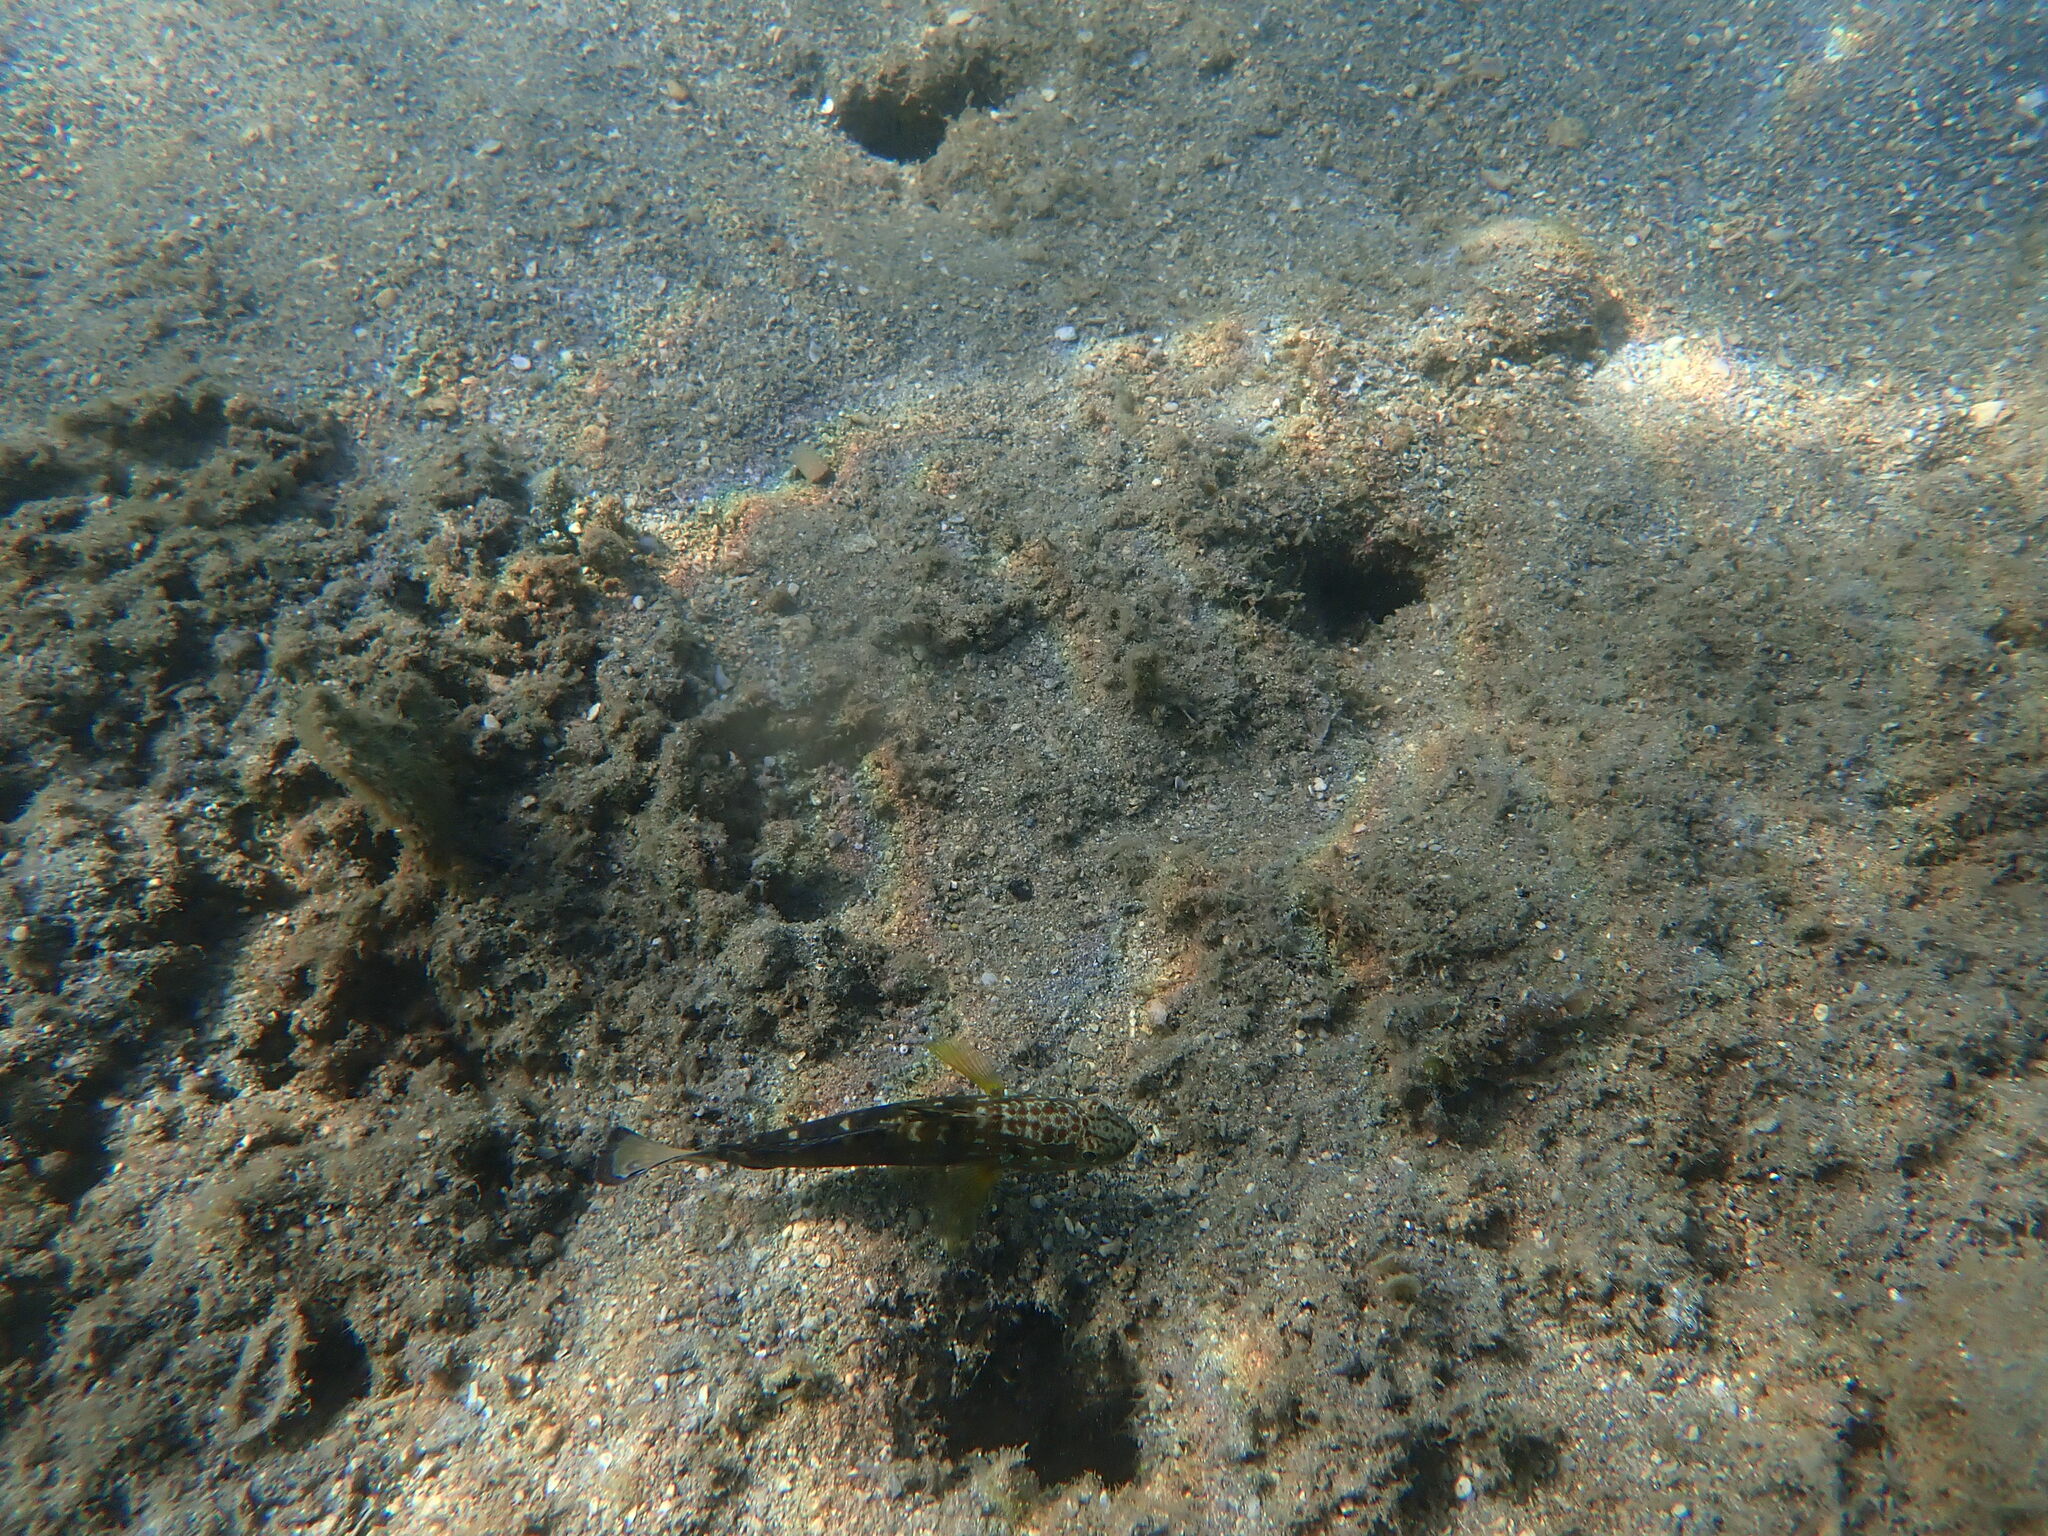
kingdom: Animalia
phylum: Chordata
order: Perciformes
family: Gobiidae
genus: Amblygobius
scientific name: Amblygobius phalaena
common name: Banded goby
